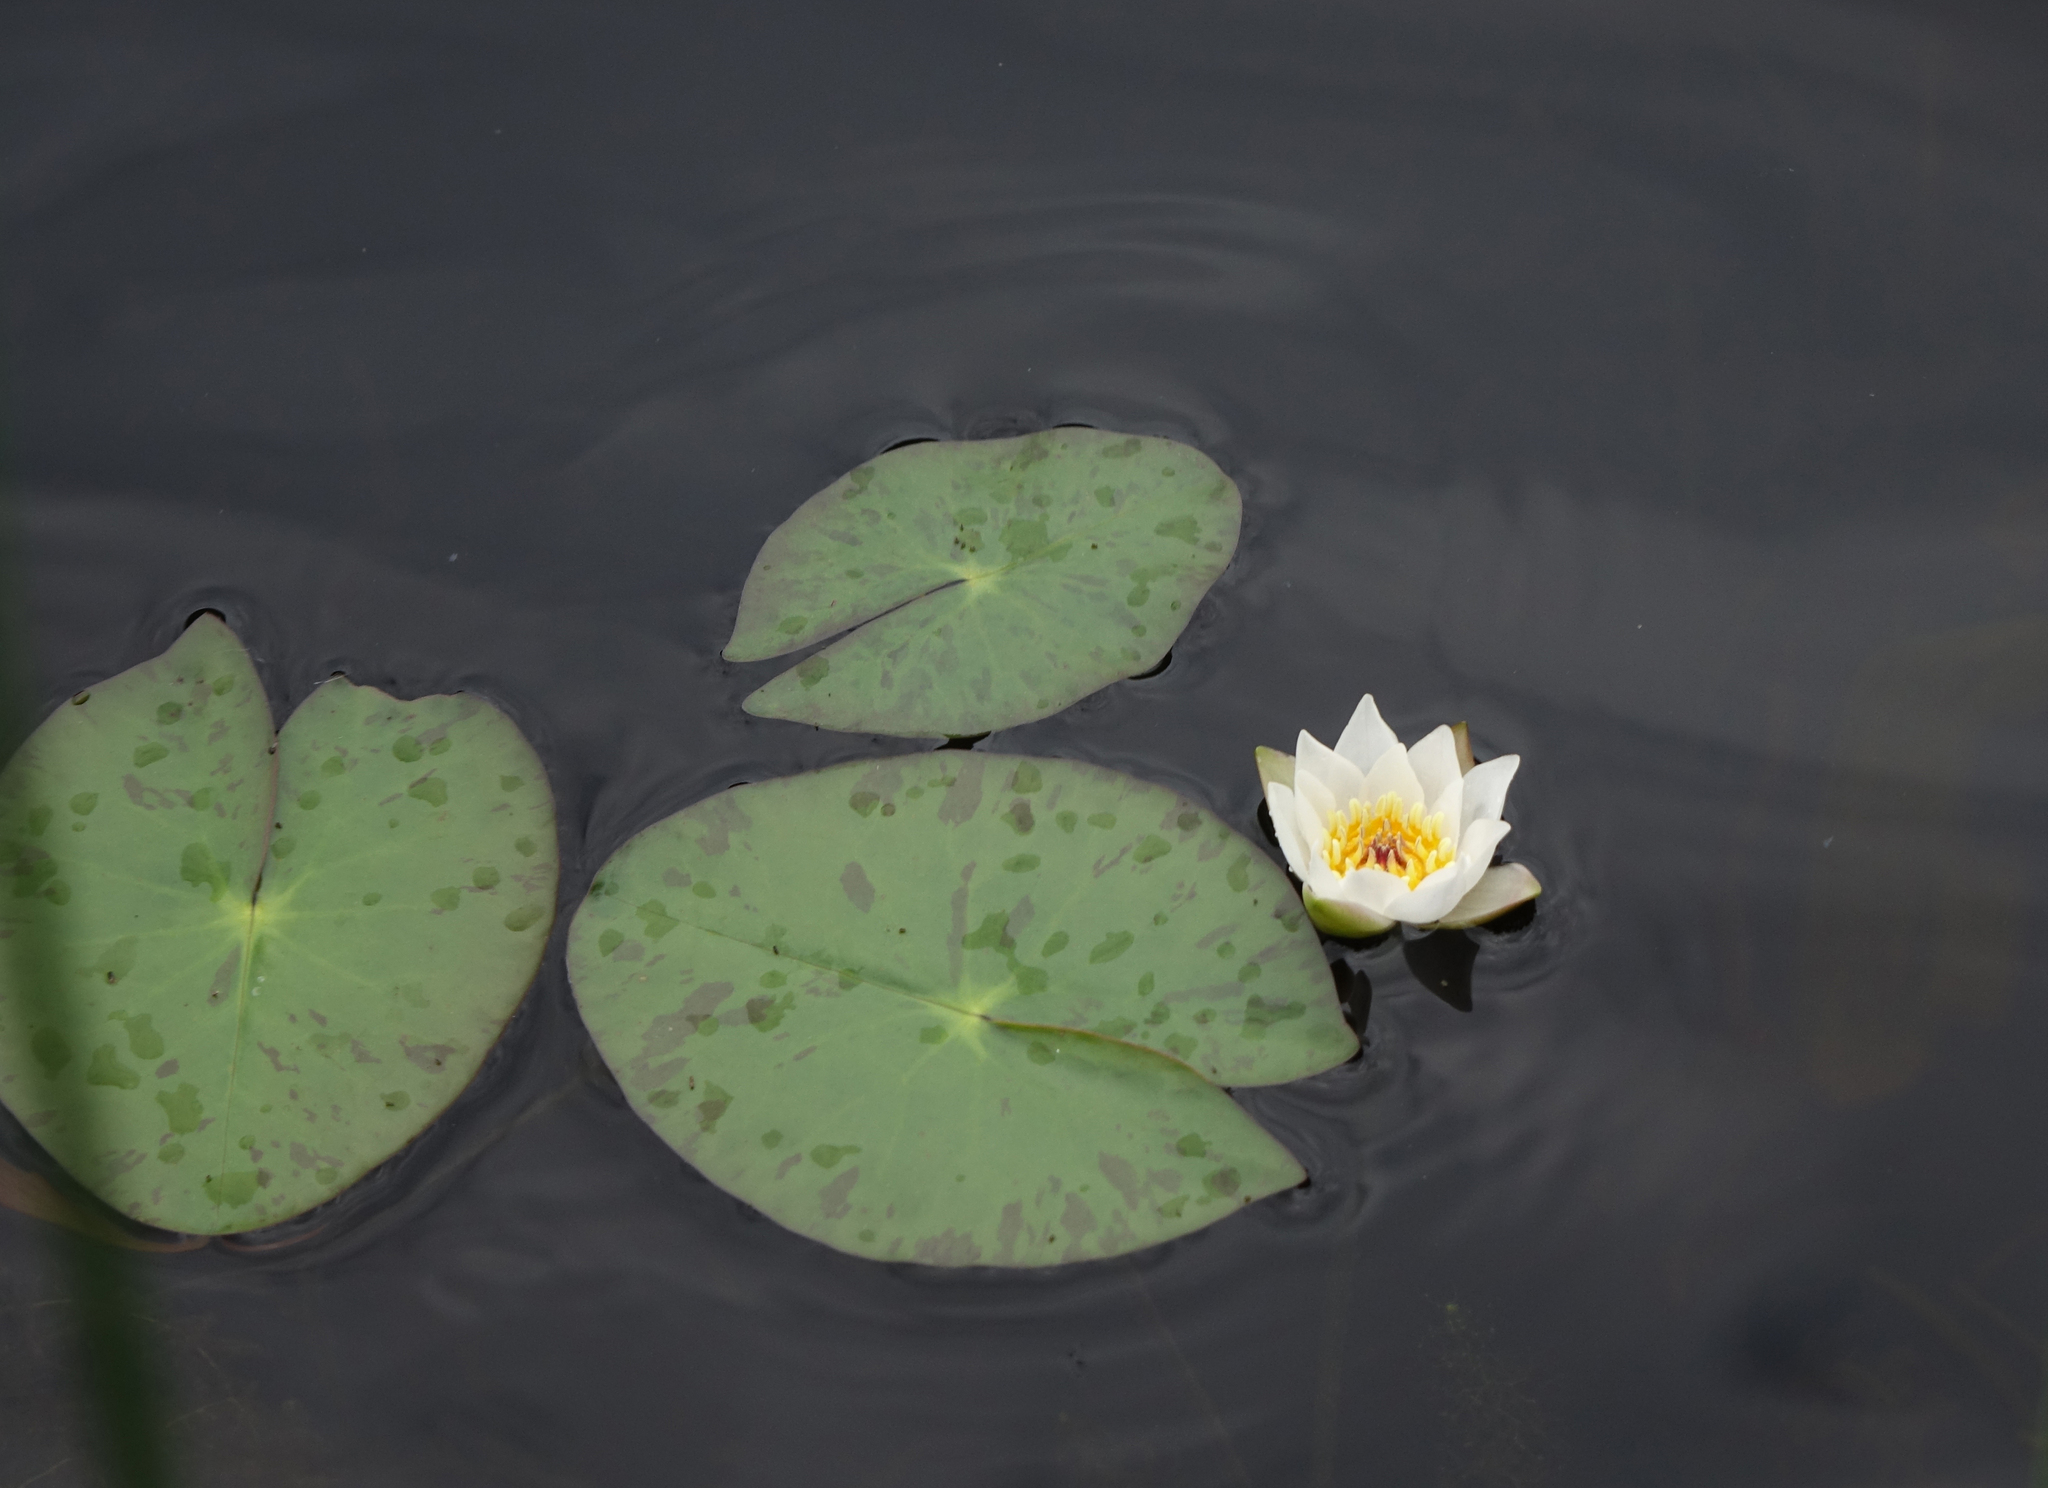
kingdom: Plantae
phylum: Tracheophyta
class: Magnoliopsida
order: Nymphaeales
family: Nymphaeaceae
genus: Nymphaea
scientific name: Nymphaea tetragona
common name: Pygmy water-lily
